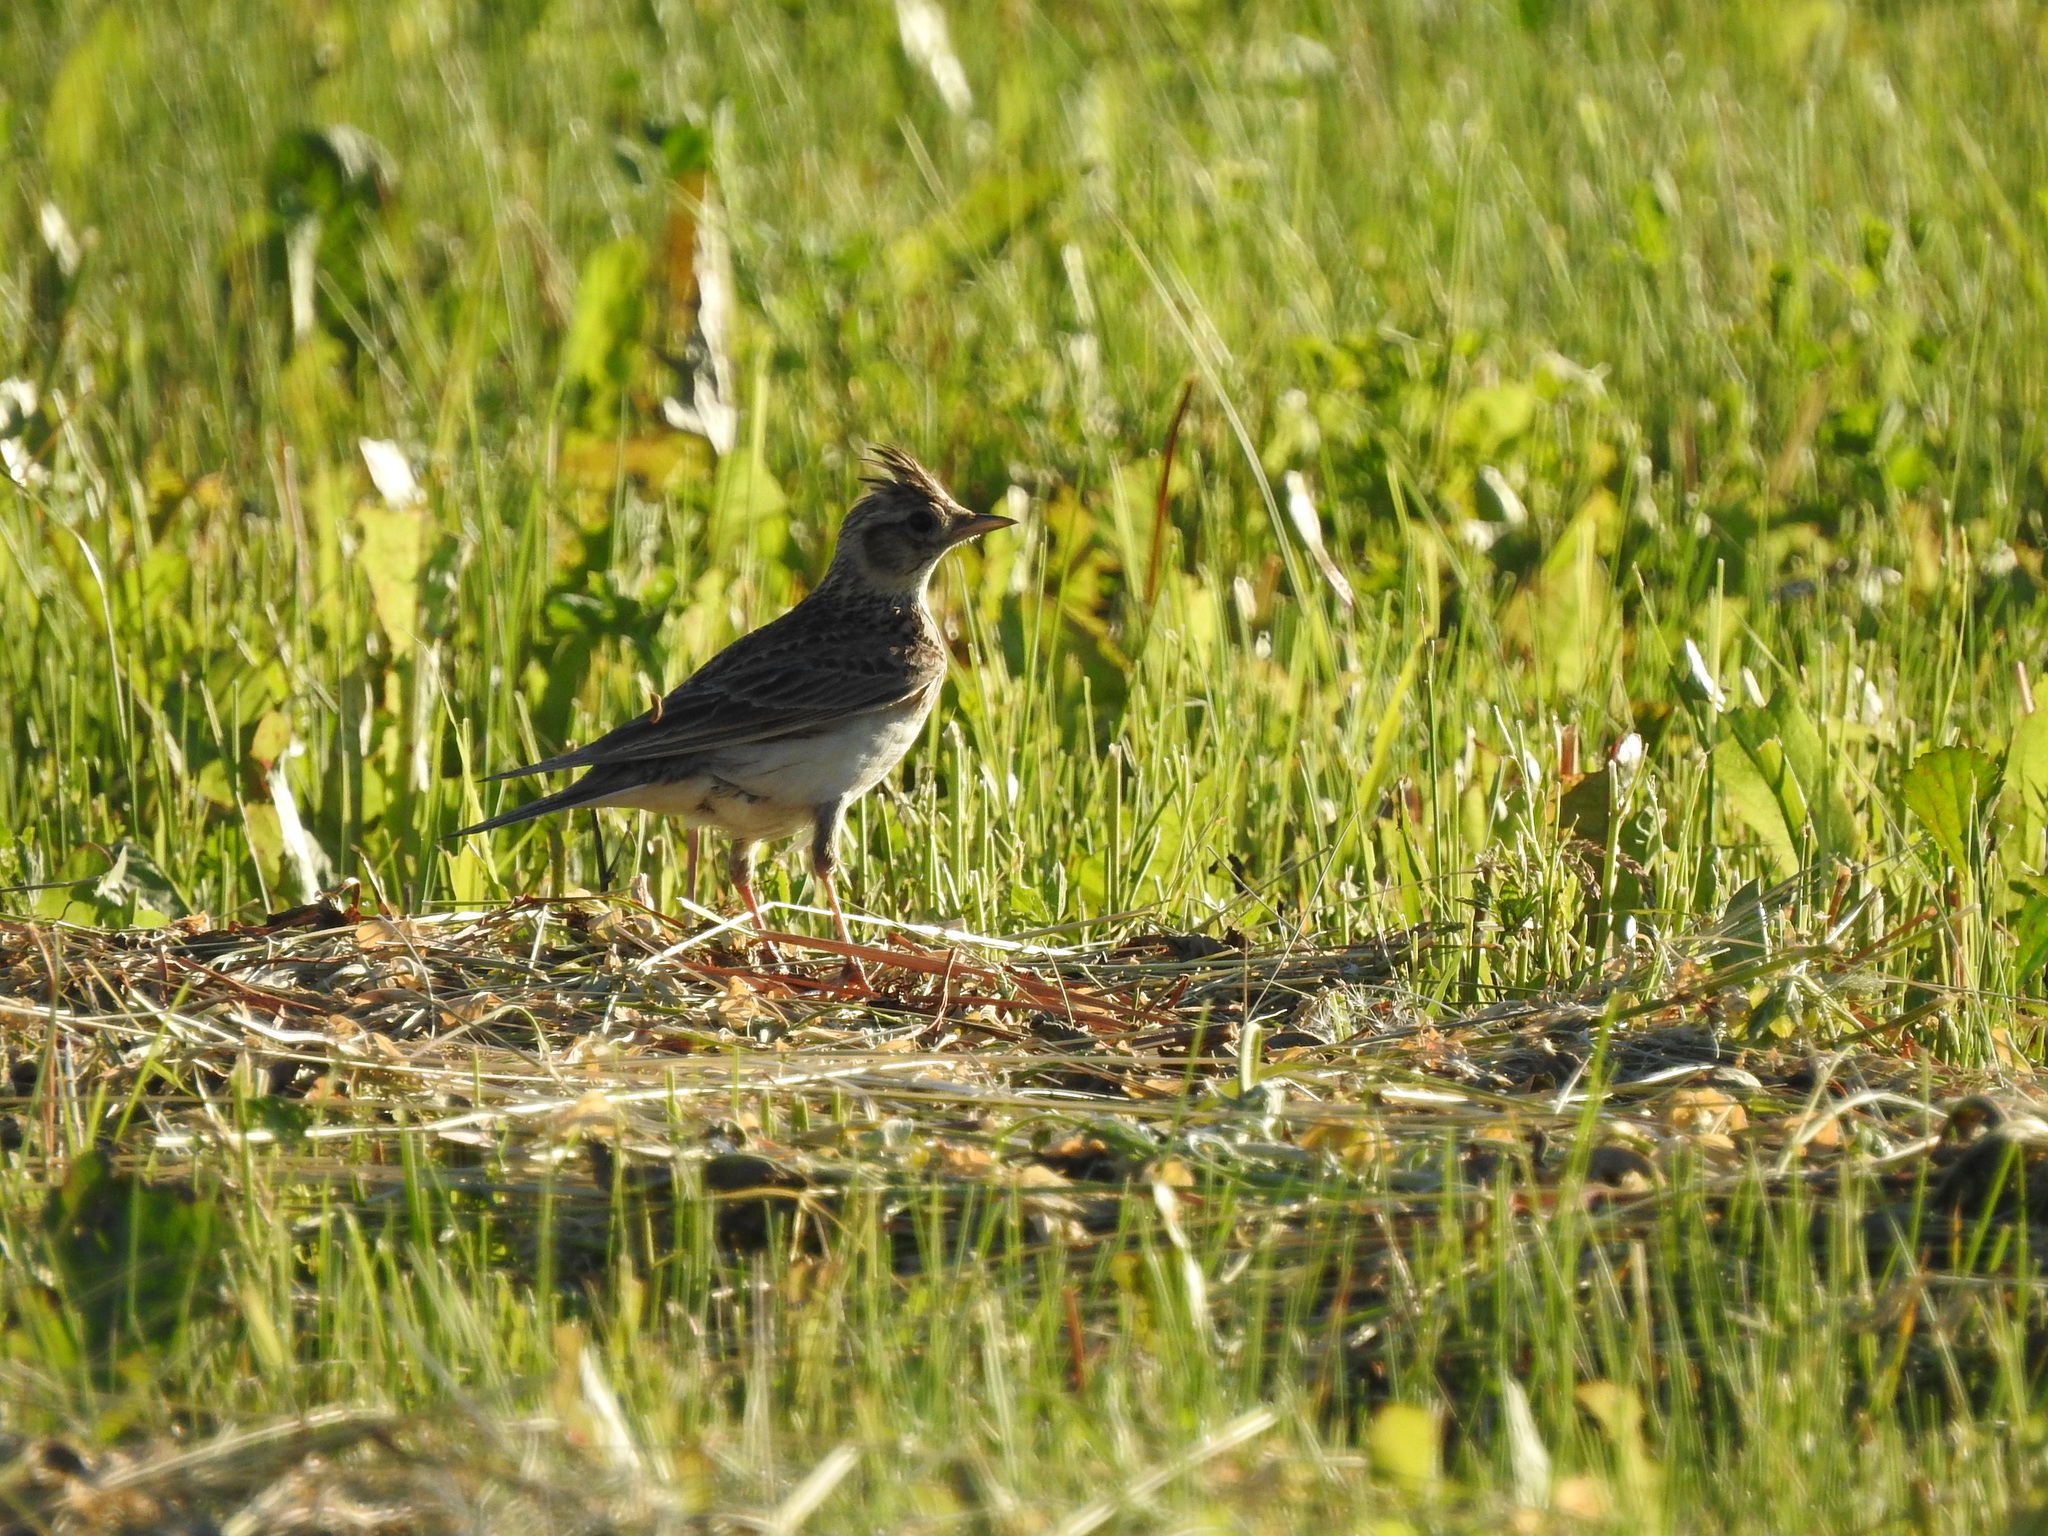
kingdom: Animalia
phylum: Chordata
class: Aves
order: Passeriformes
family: Alaudidae
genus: Alauda
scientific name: Alauda arvensis
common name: Eurasian skylark
